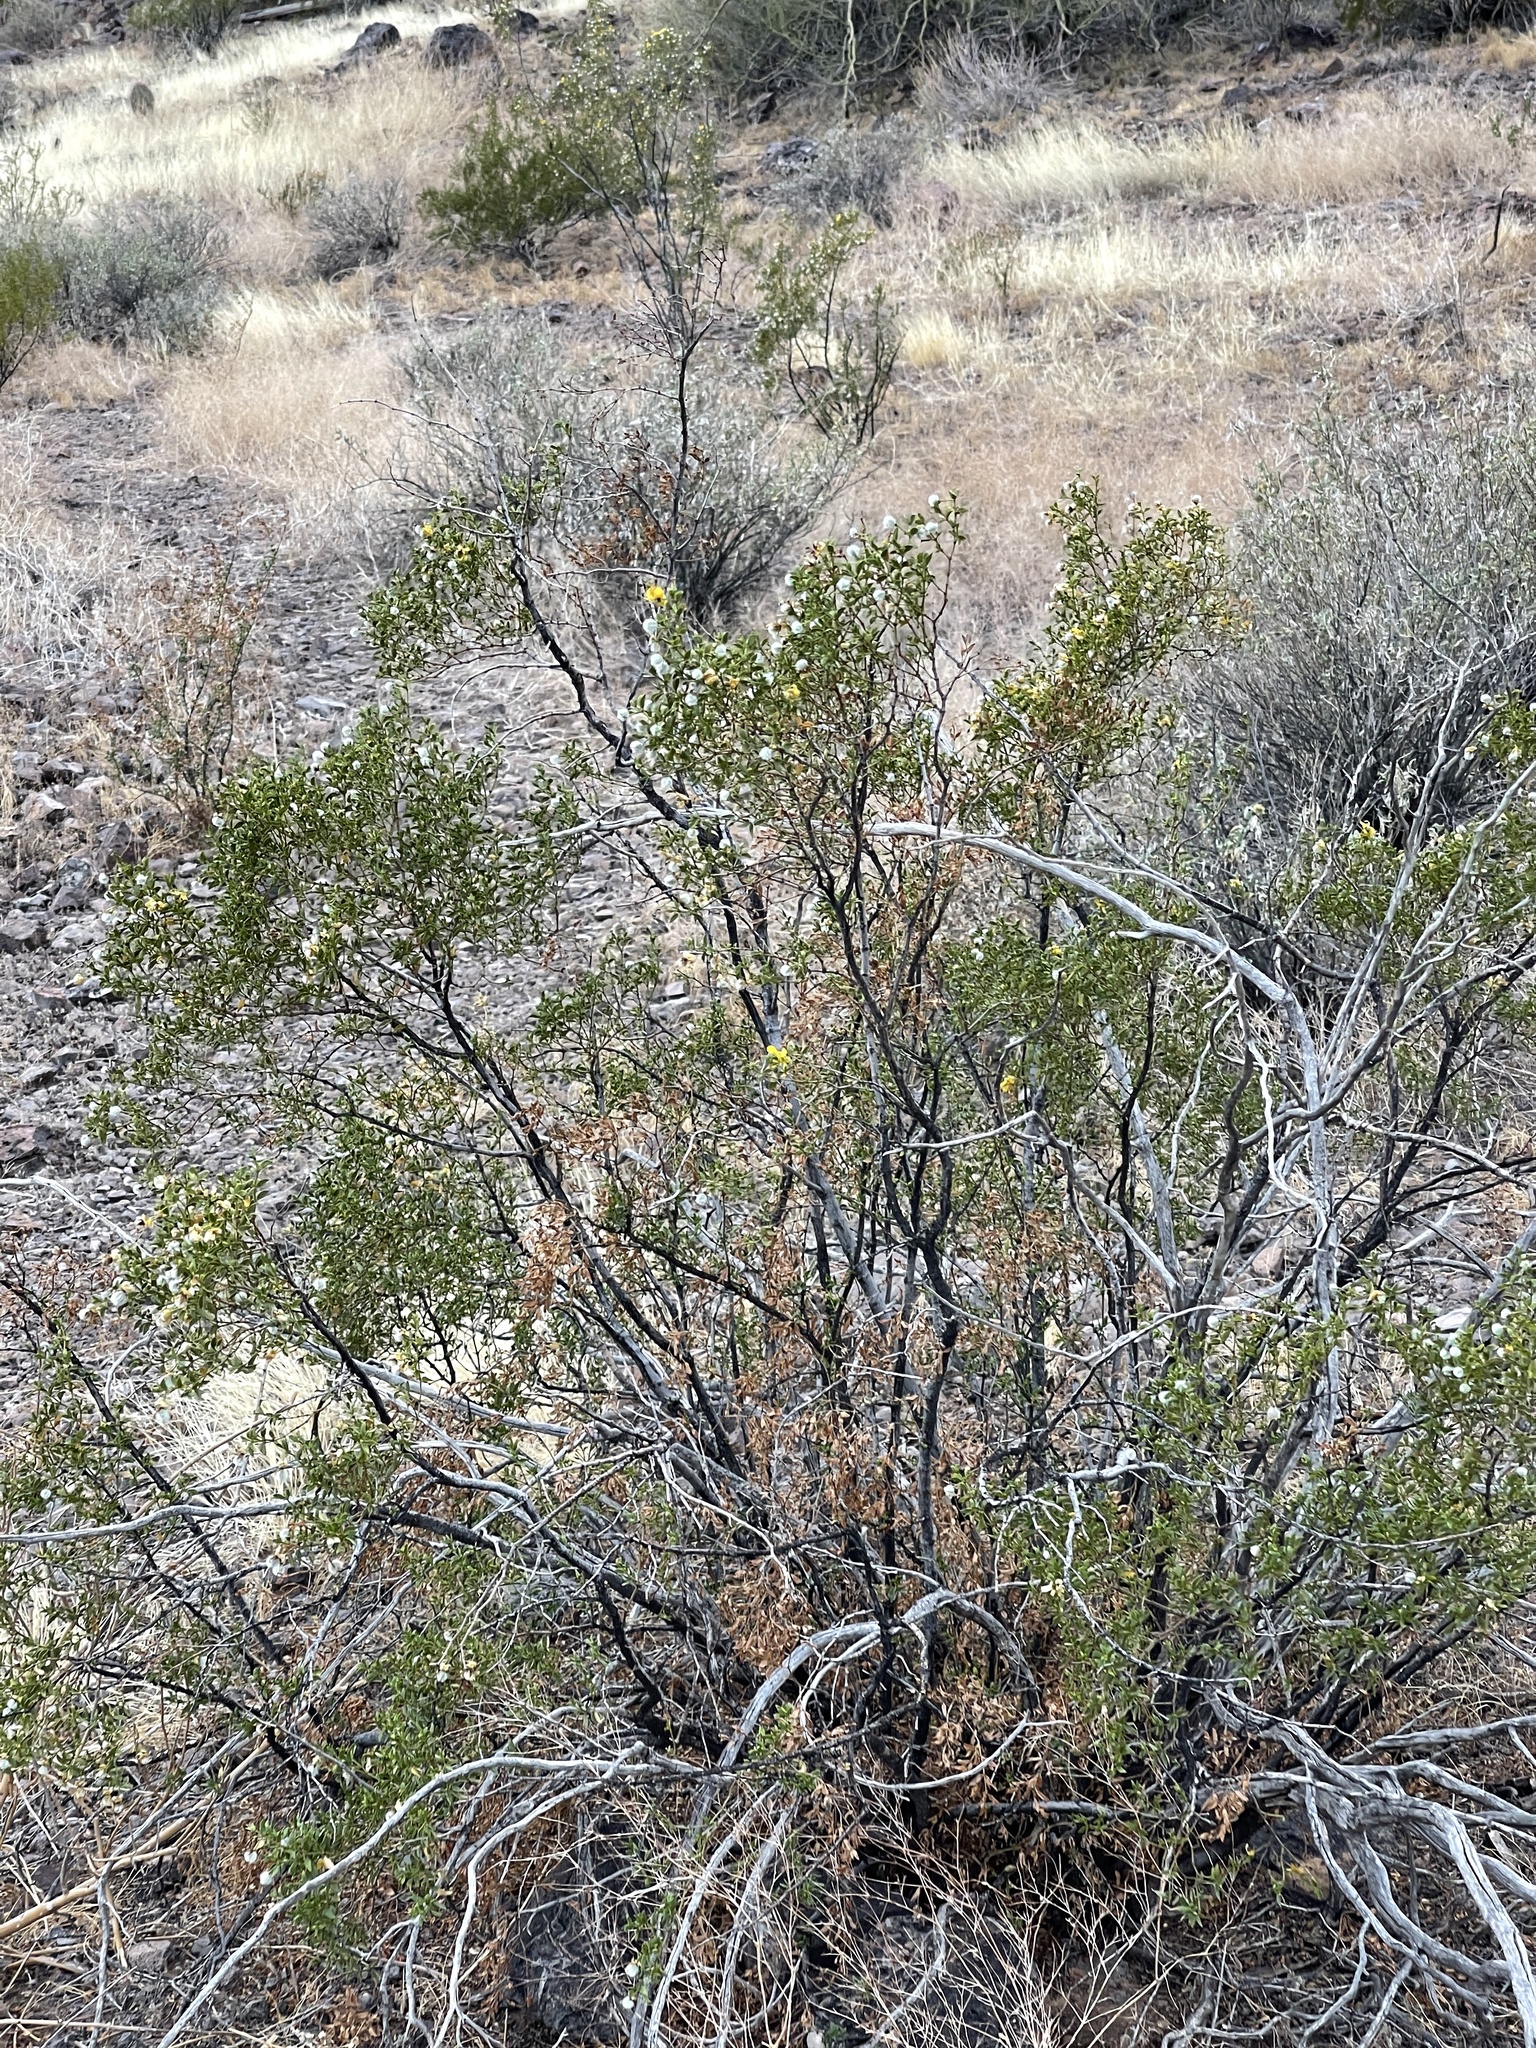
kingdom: Plantae
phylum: Tracheophyta
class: Magnoliopsida
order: Zygophyllales
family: Zygophyllaceae
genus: Larrea
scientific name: Larrea tridentata
